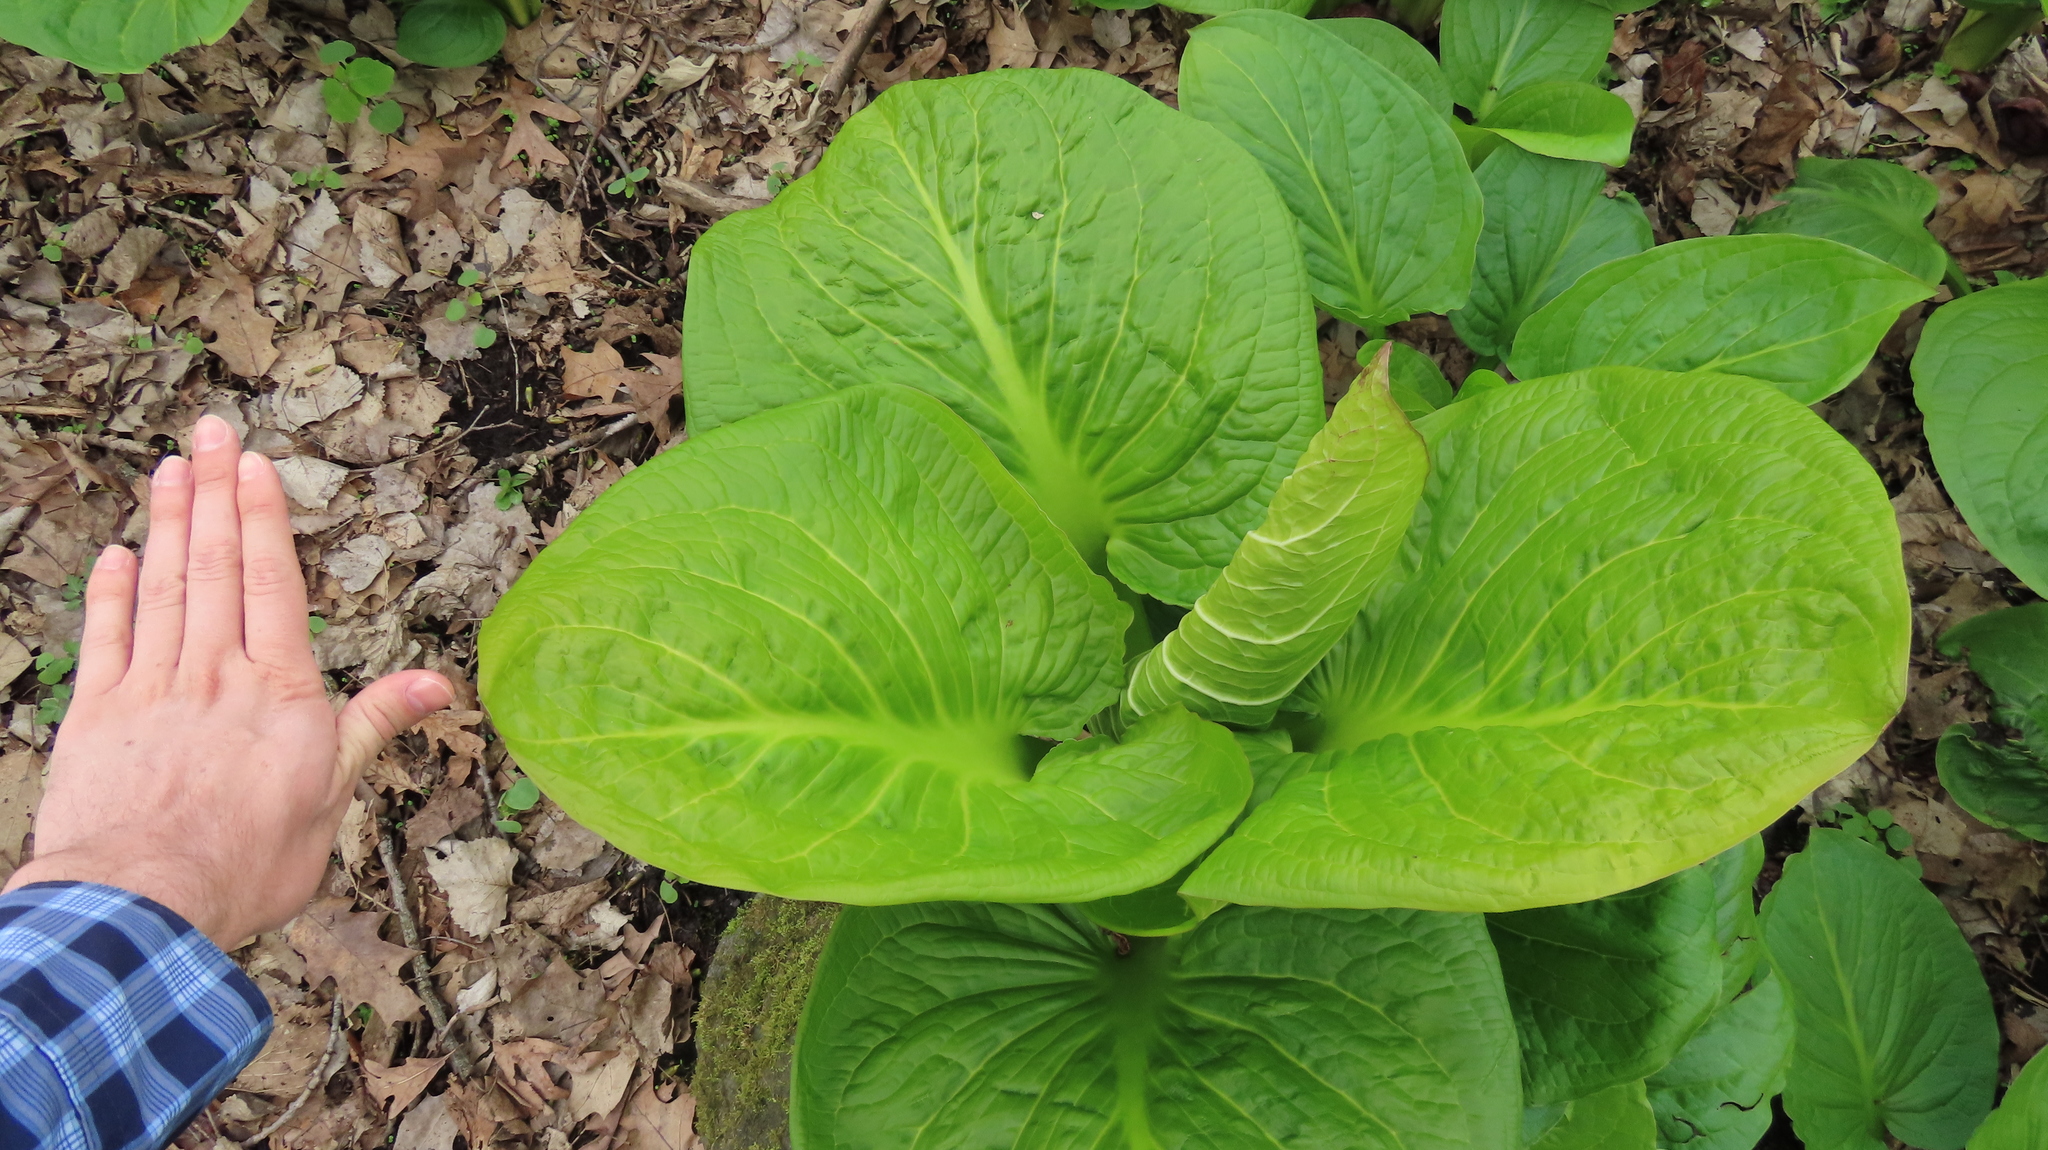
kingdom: Plantae
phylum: Tracheophyta
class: Liliopsida
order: Alismatales
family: Araceae
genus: Symplocarpus
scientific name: Symplocarpus foetidus
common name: Eastern skunk cabbage
